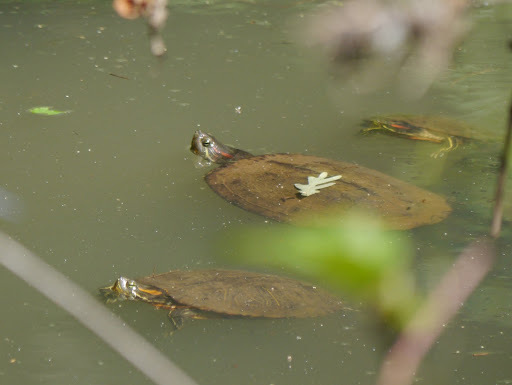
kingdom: Animalia
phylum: Chordata
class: Testudines
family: Emydidae
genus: Trachemys
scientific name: Trachemys scripta
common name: Slider
